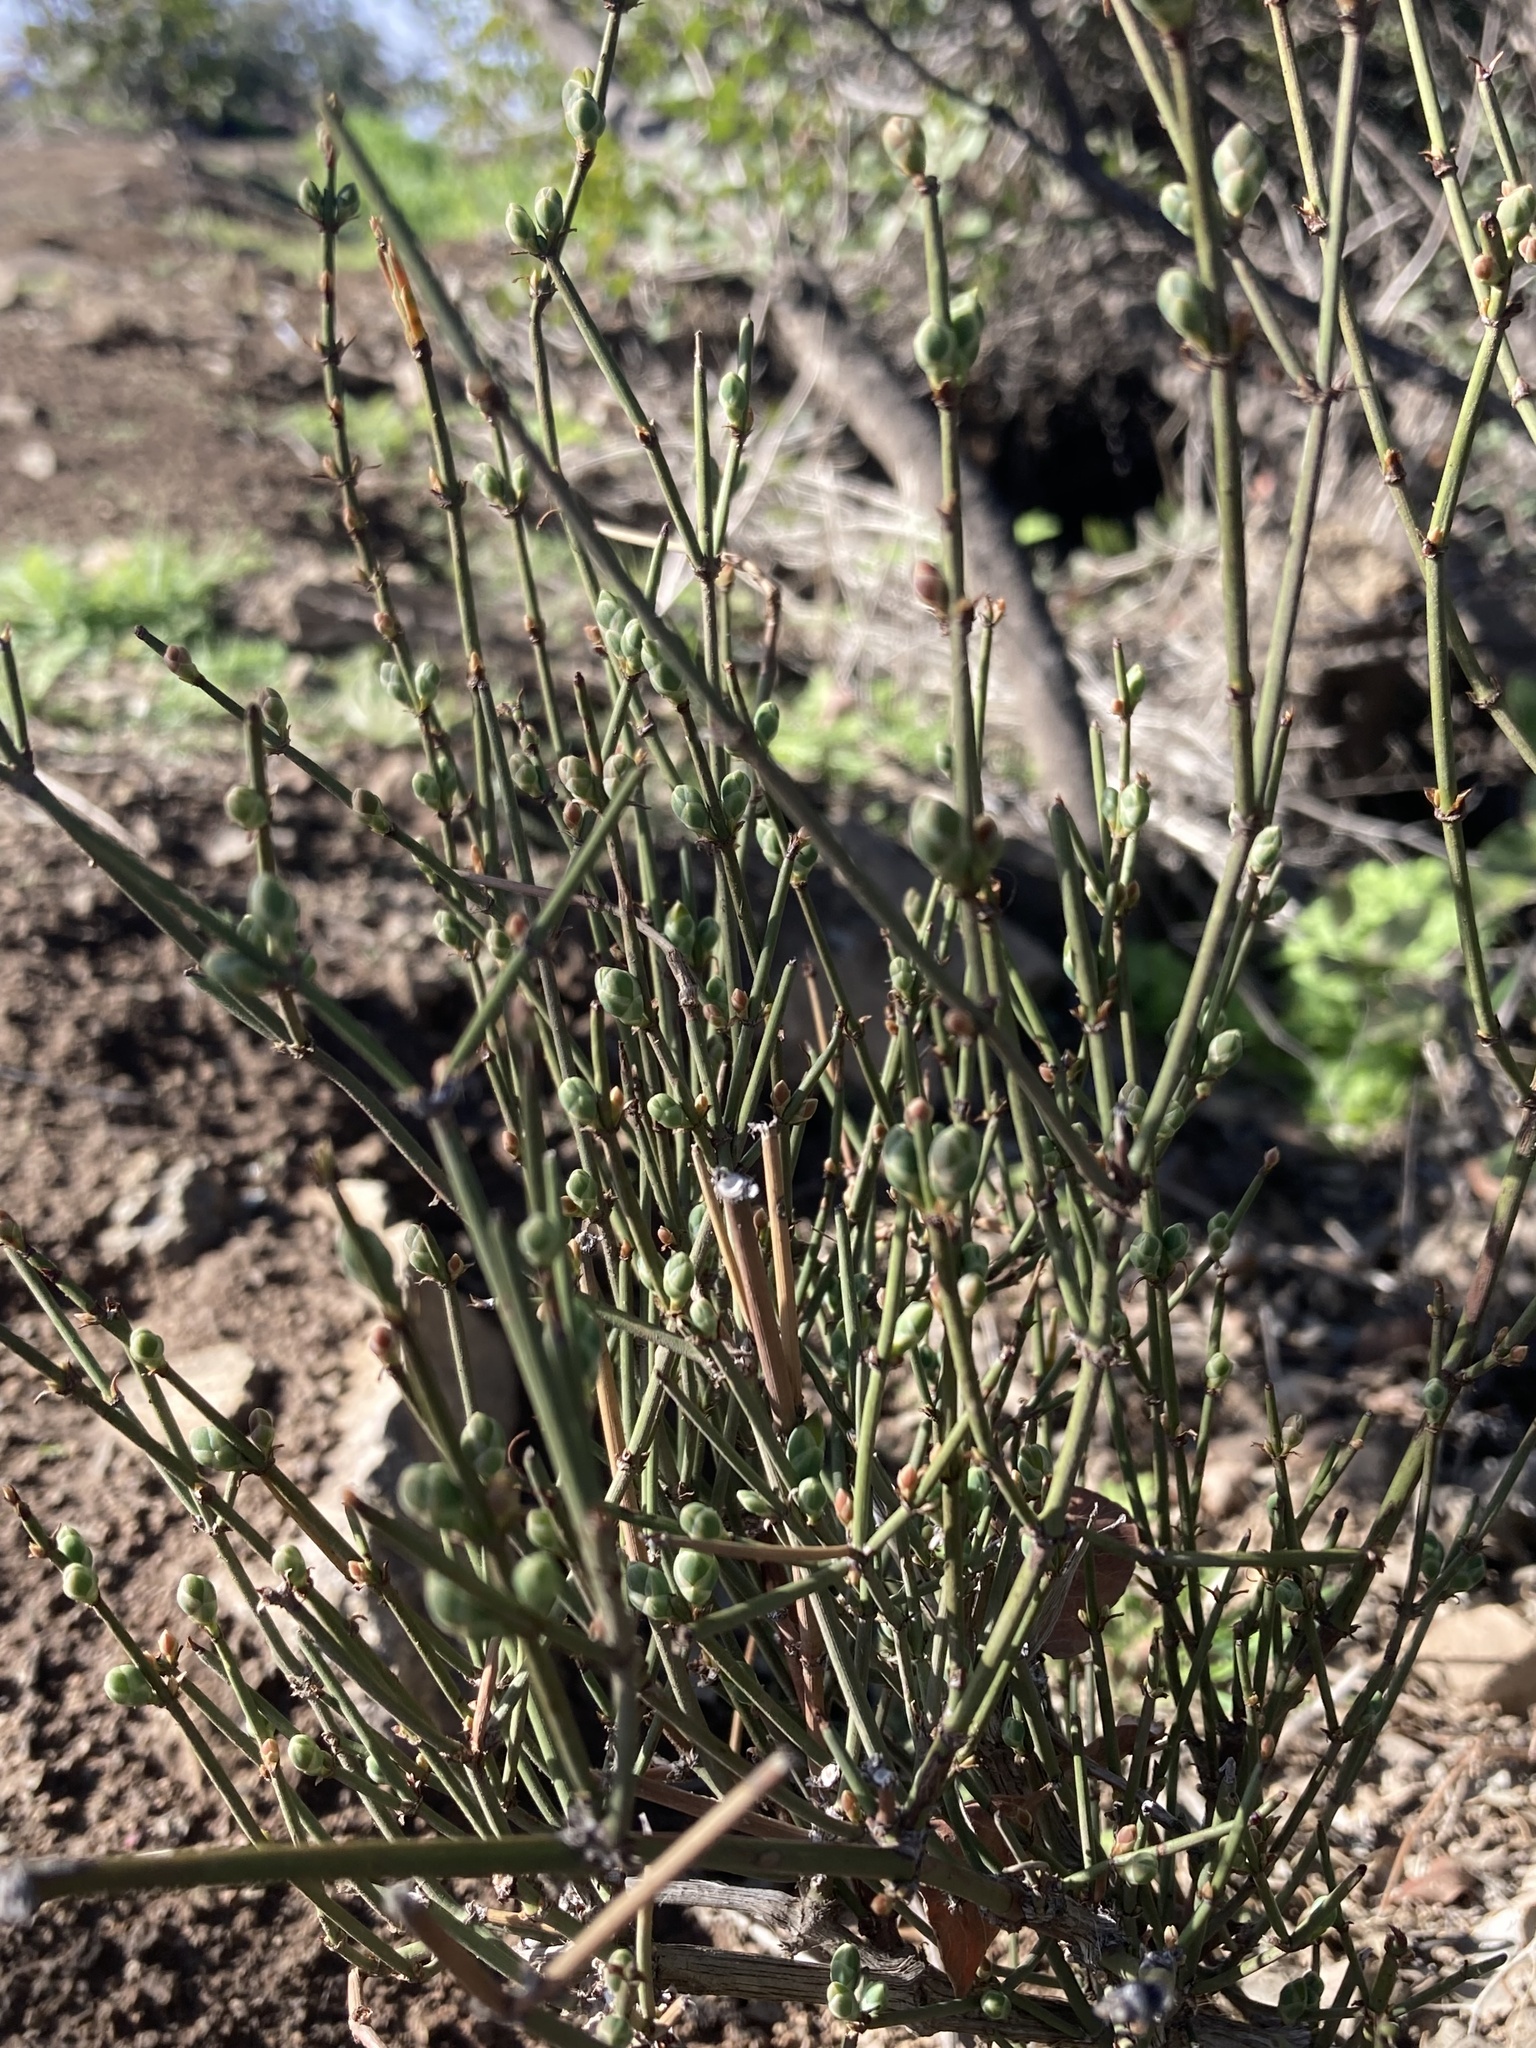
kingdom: Plantae
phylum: Tracheophyta
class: Gnetopsida
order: Ephedrales
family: Ephedraceae
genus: Ephedra
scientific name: Ephedra chilensis
